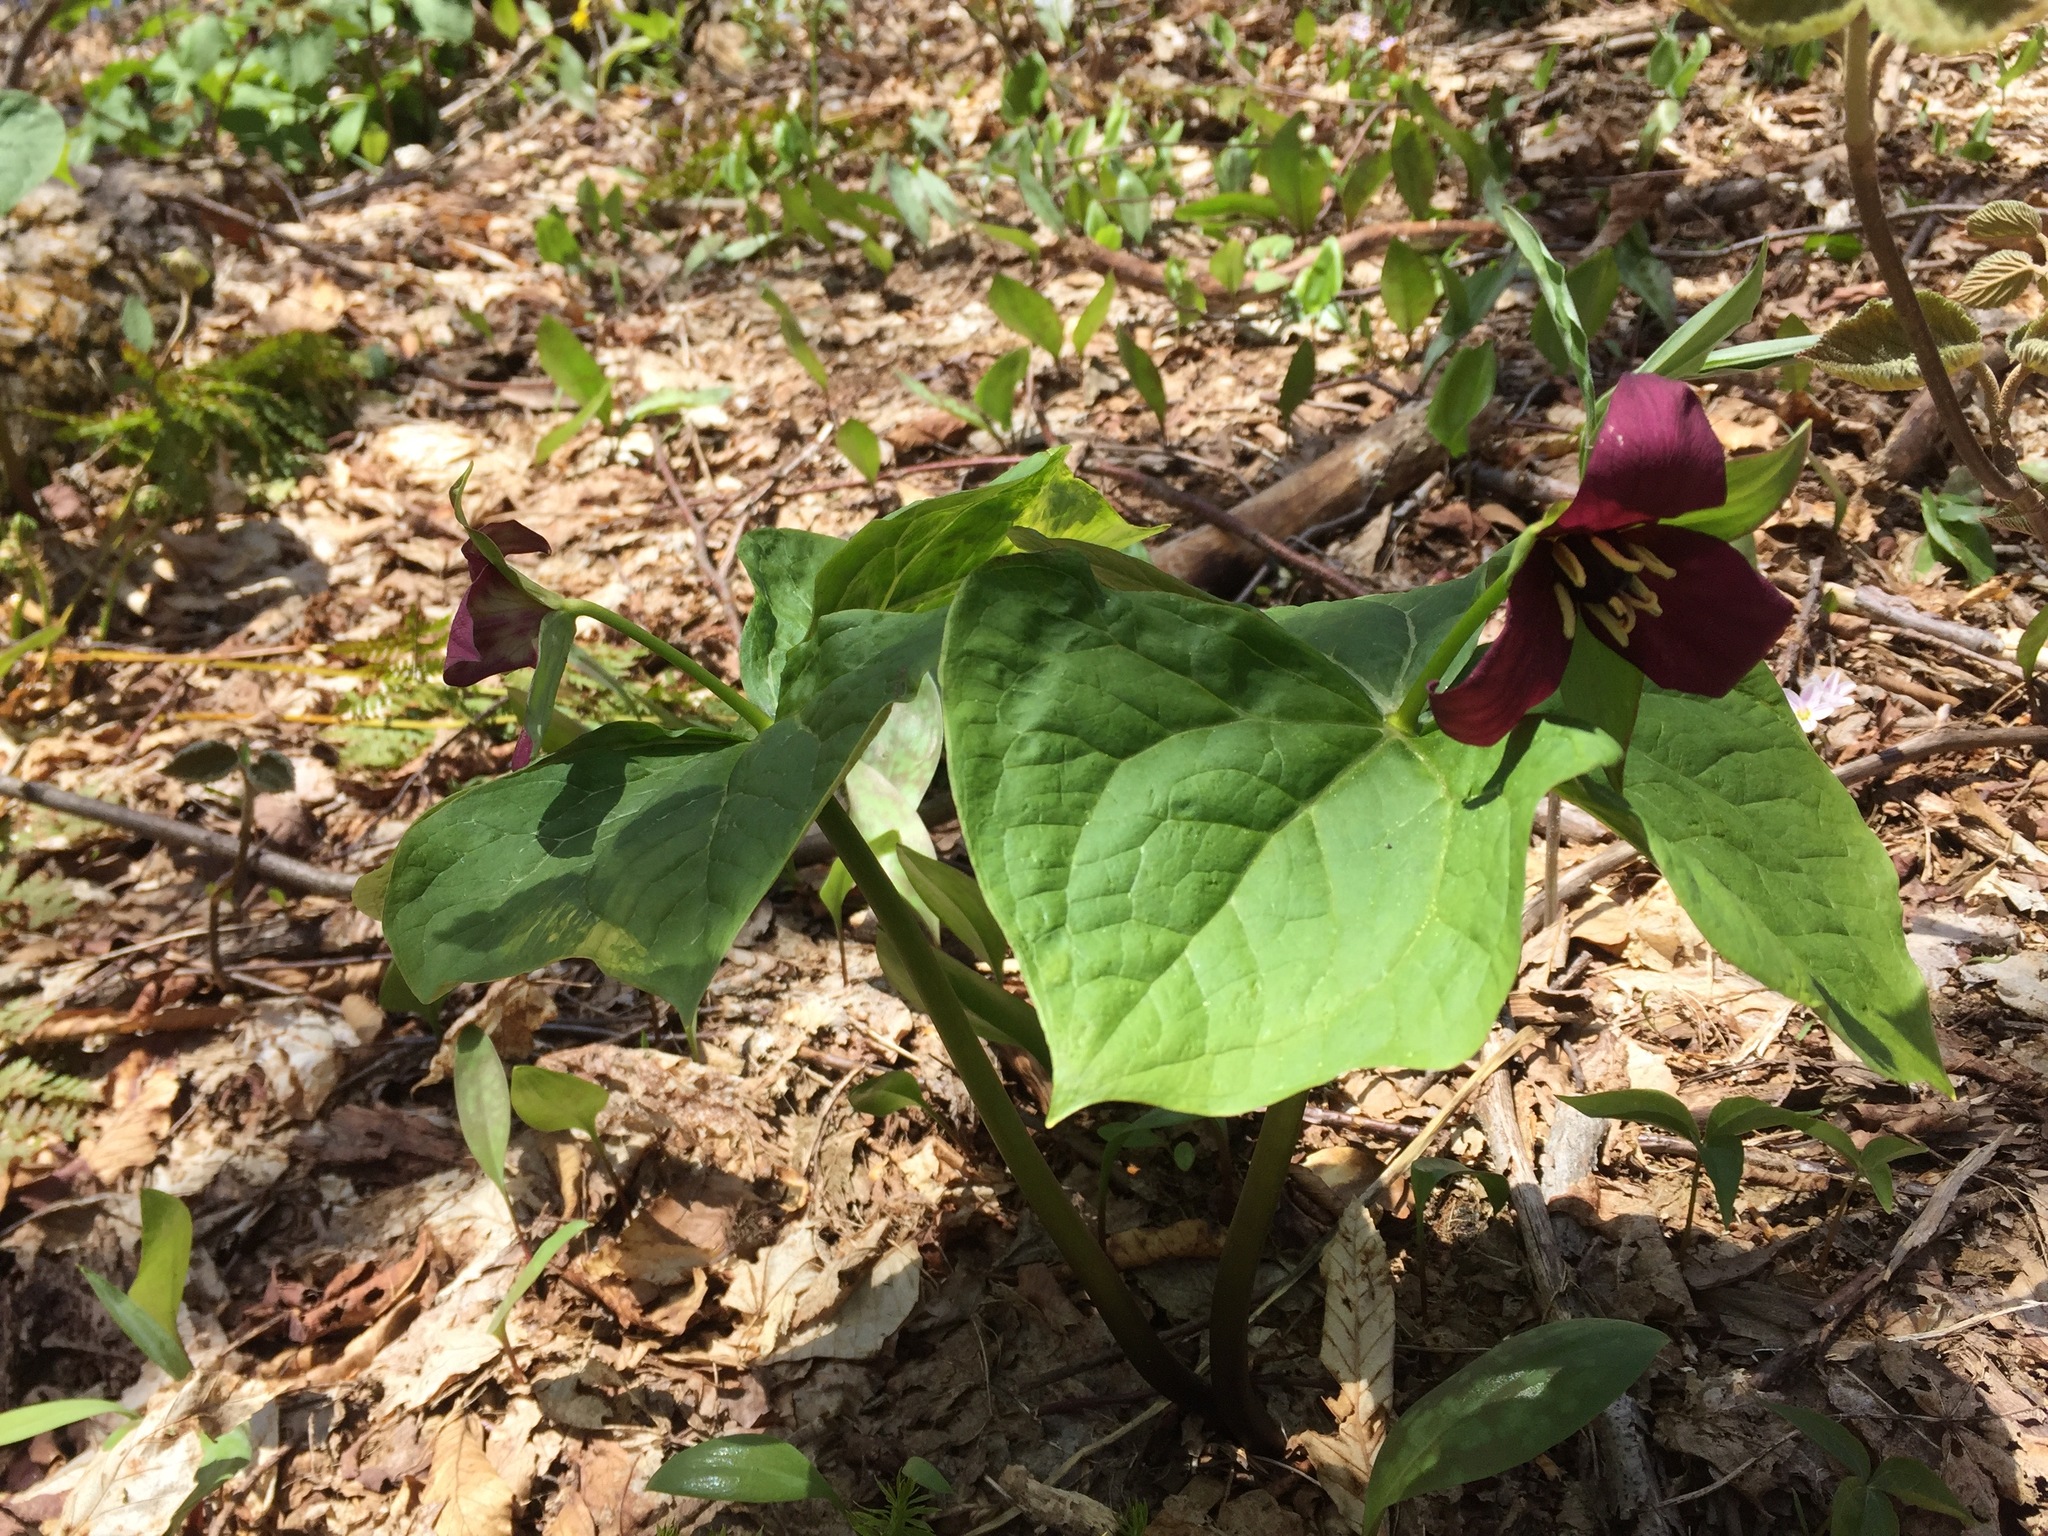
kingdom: Plantae
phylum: Tracheophyta
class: Liliopsida
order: Liliales
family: Melanthiaceae
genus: Trillium
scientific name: Trillium erectum
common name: Purple trillium
